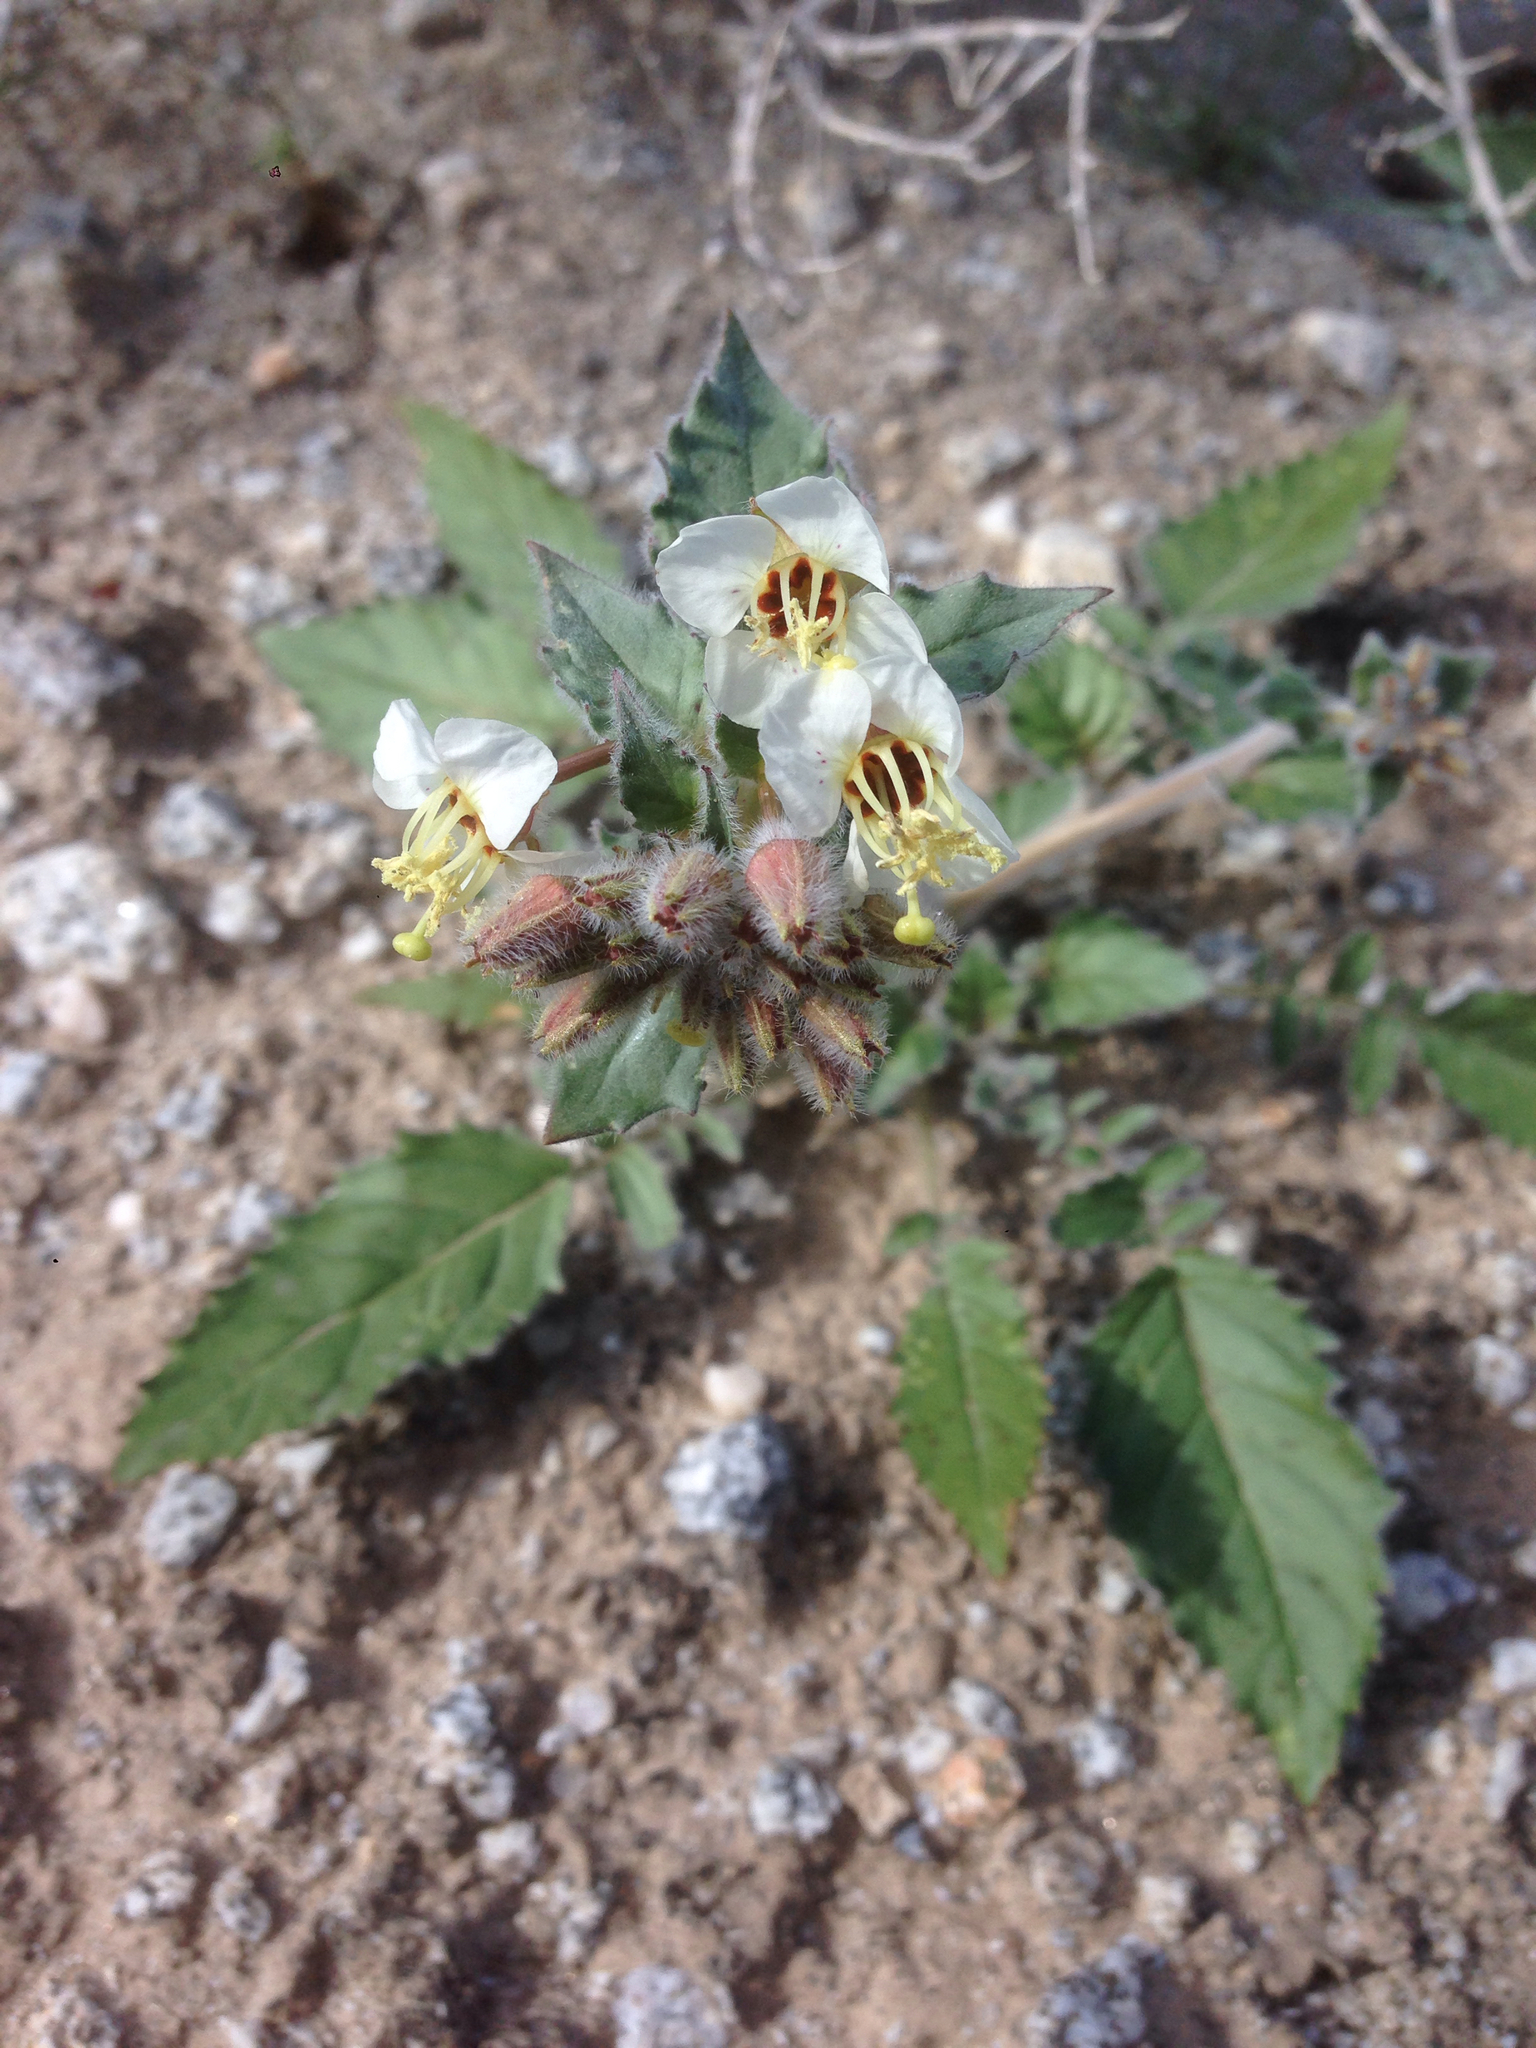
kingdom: Plantae
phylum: Tracheophyta
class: Magnoliopsida
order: Myrtales
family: Onagraceae
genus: Chylismia
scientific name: Chylismia claviformis
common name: Browneyes
